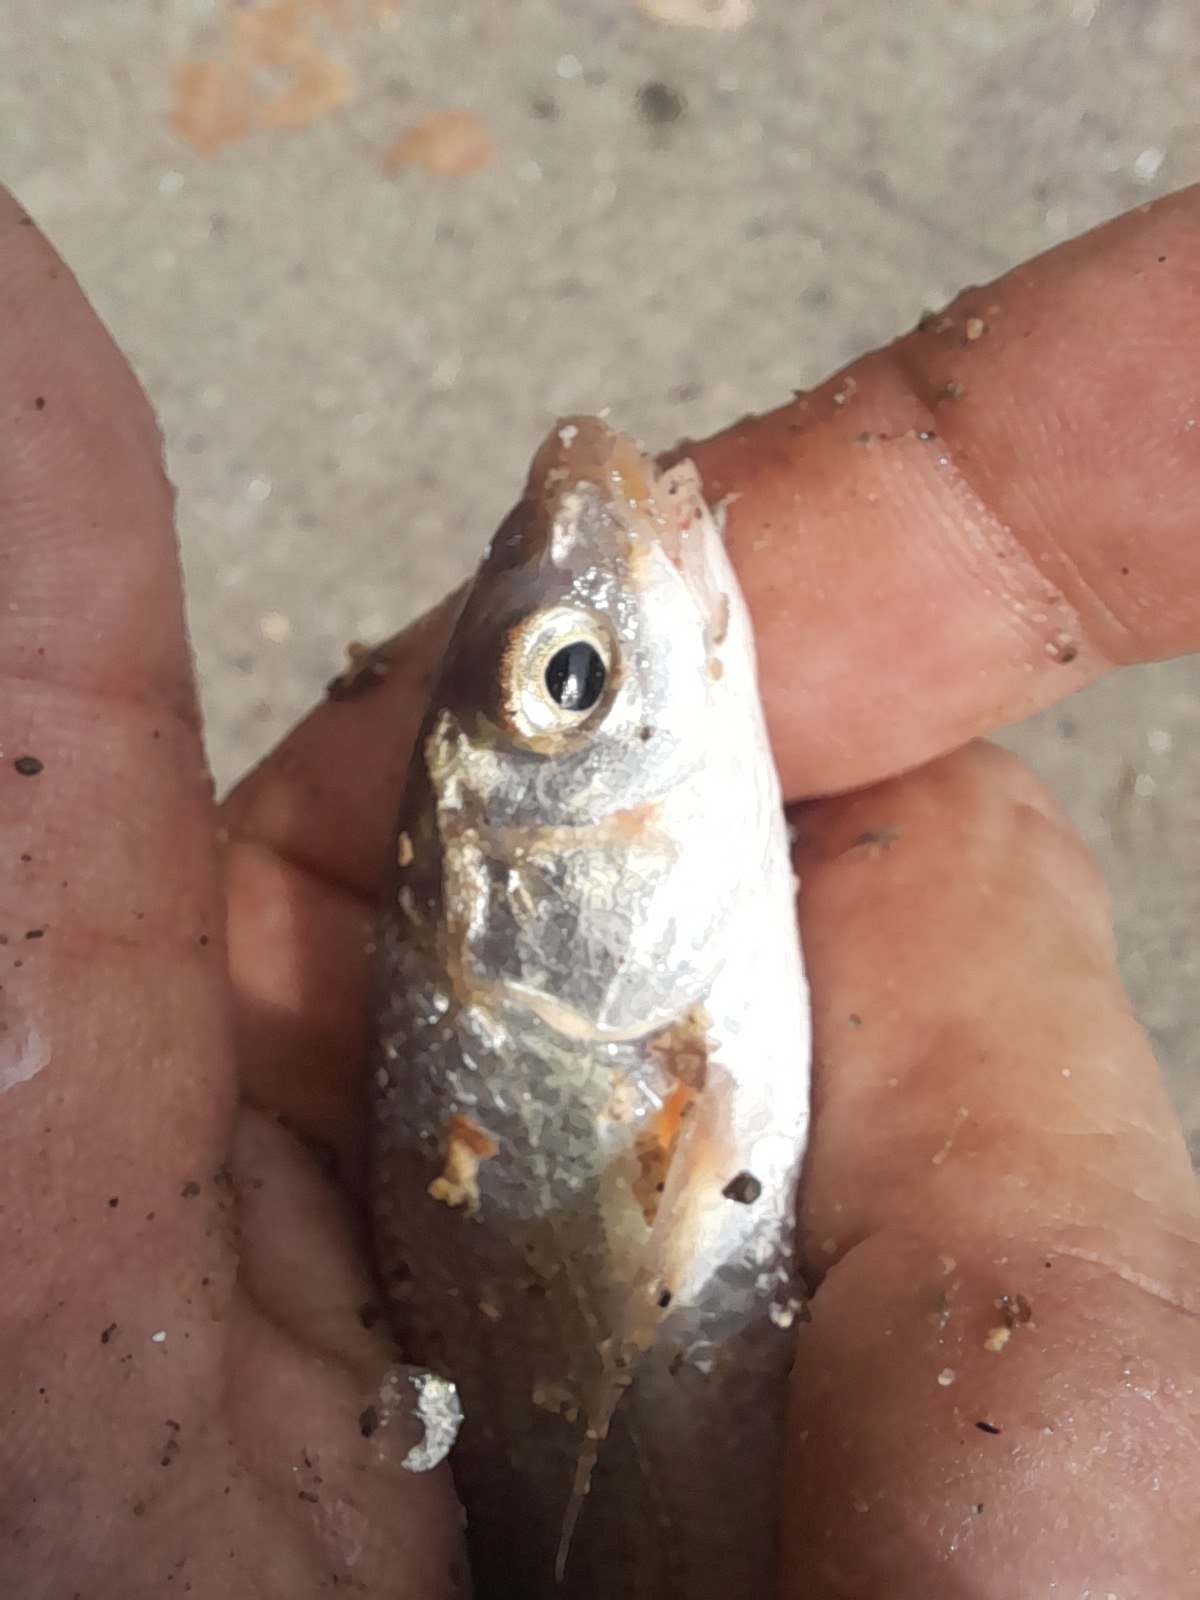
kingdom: Animalia
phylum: Chordata
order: Cypriniformes
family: Cyprinidae
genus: Protochondrostoma
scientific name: Protochondrostoma genei
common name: South european nase
